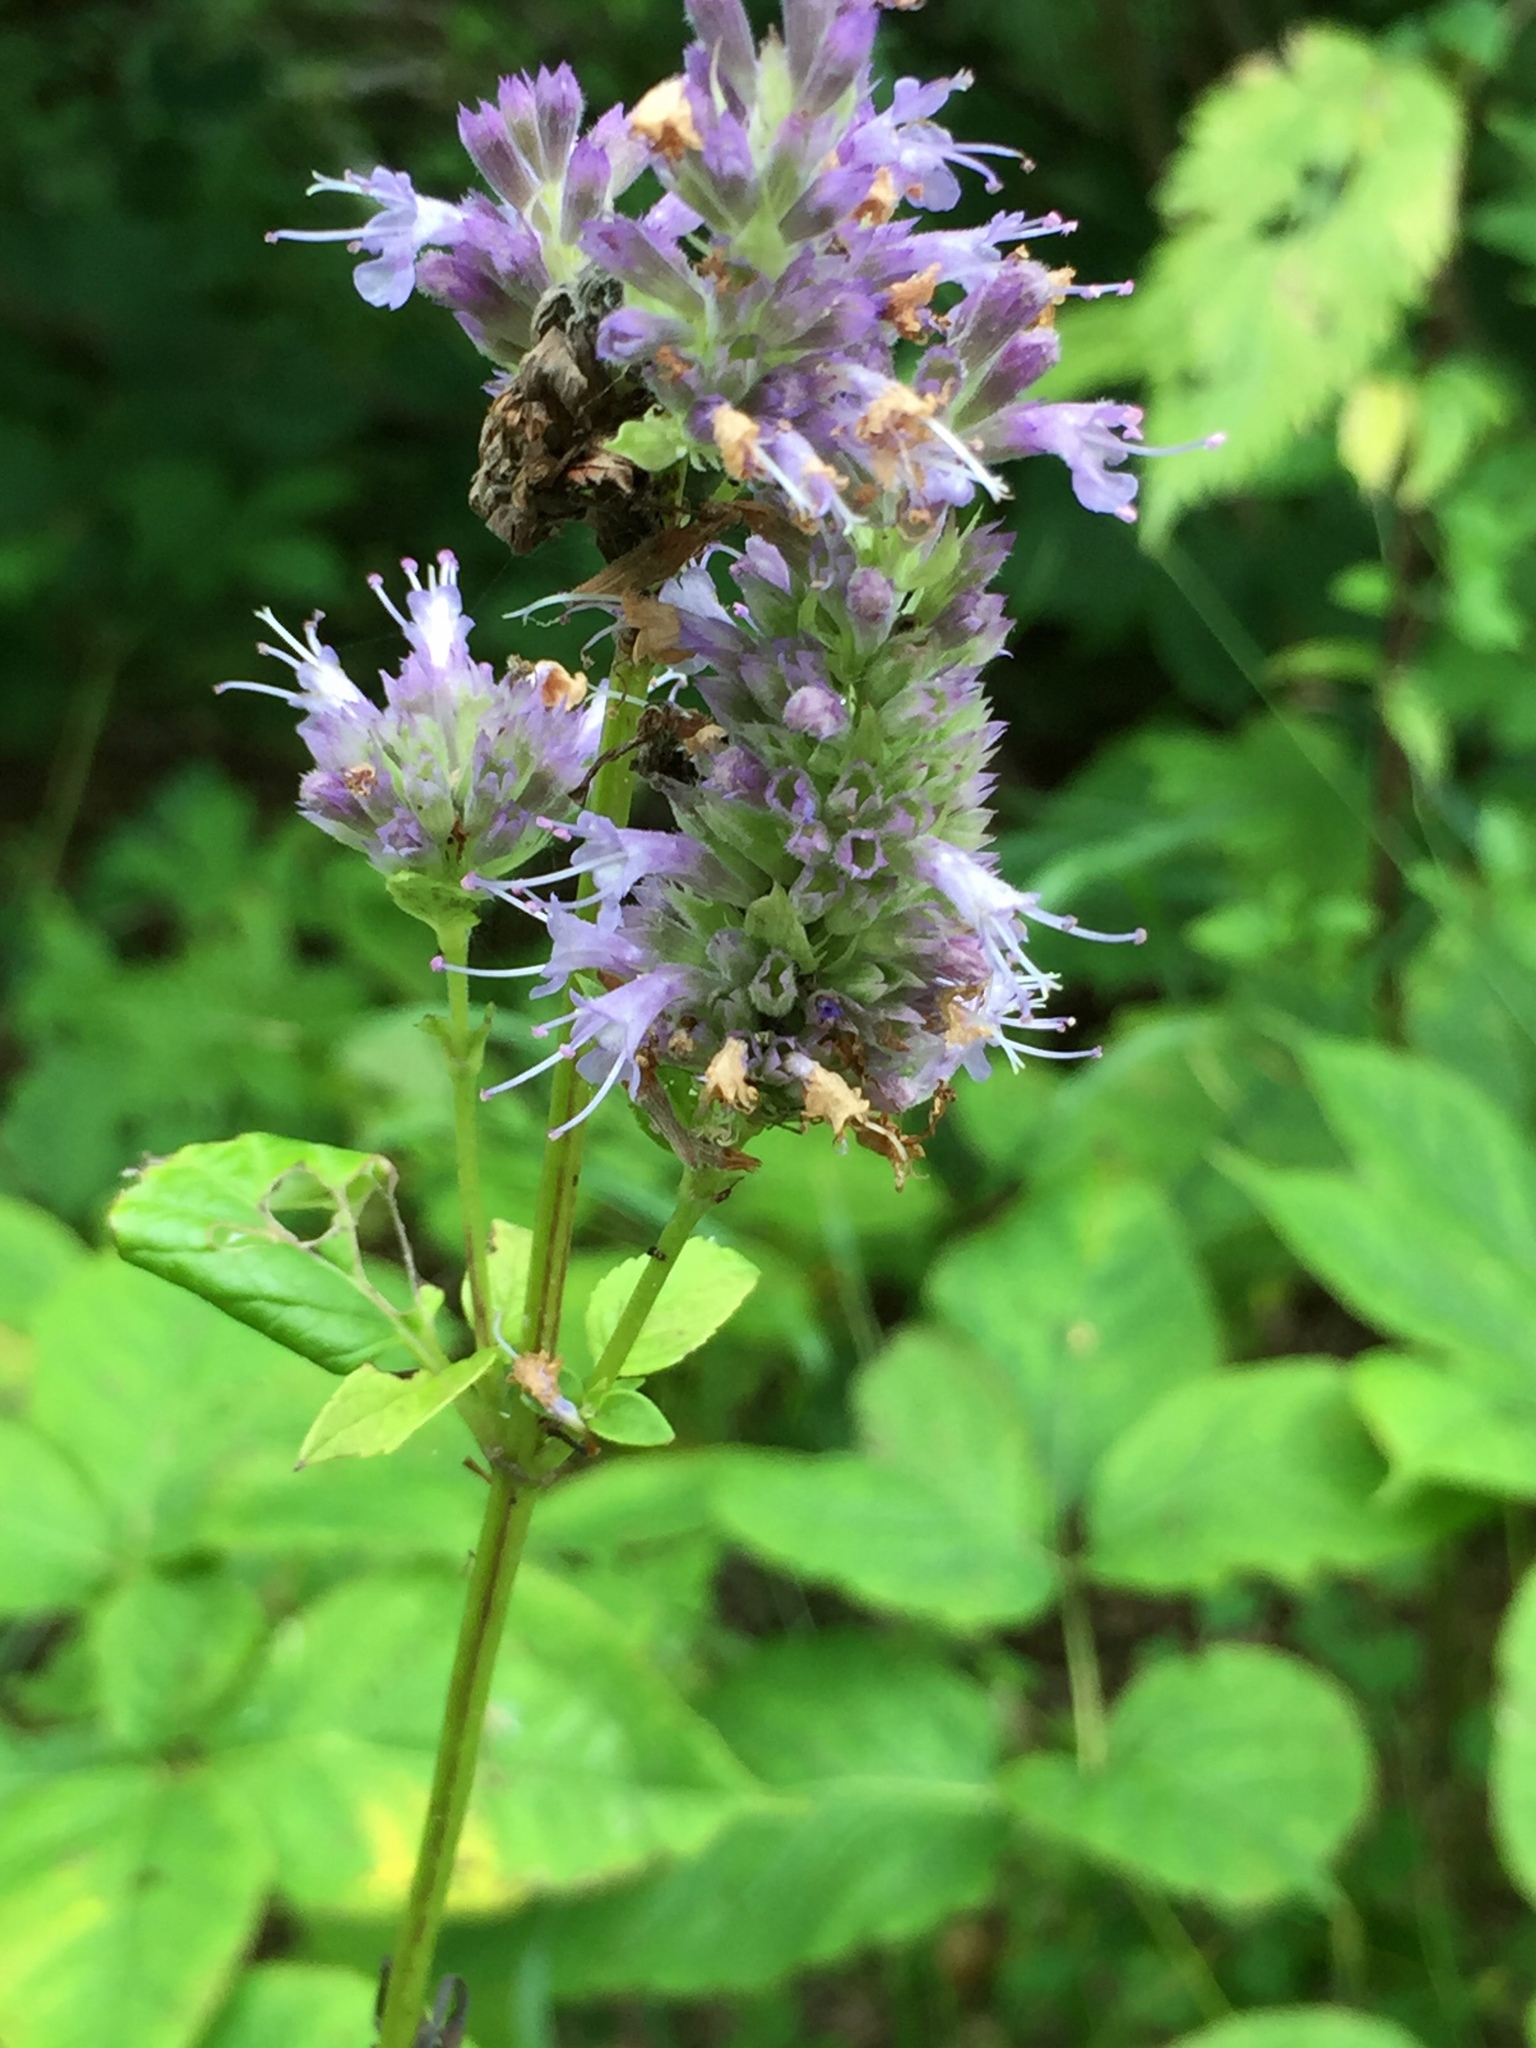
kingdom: Plantae
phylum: Tracheophyta
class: Magnoliopsida
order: Lamiales
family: Lamiaceae
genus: Agastache
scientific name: Agastache foeniculum
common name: Anise hyssop
